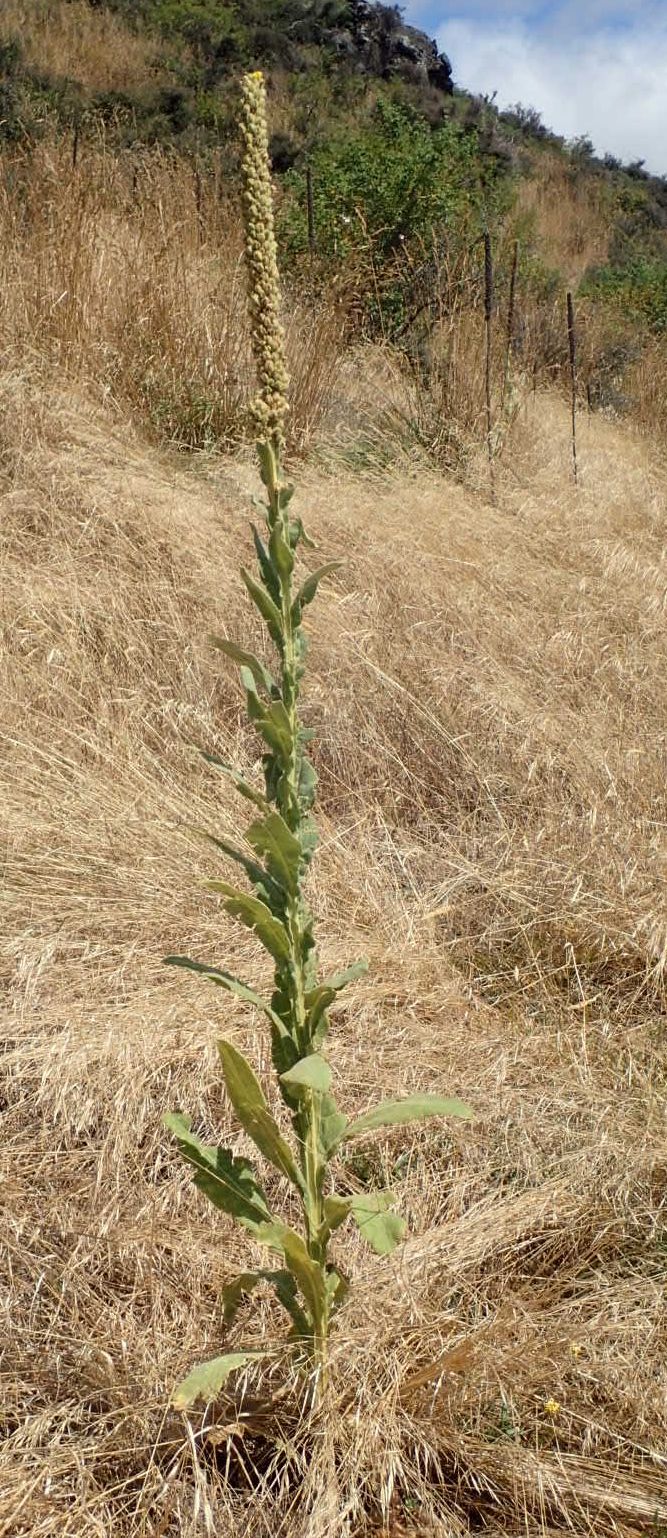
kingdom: Plantae
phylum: Tracheophyta
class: Magnoliopsida
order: Lamiales
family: Scrophulariaceae
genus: Verbascum
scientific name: Verbascum thapsus
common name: Common mullein
